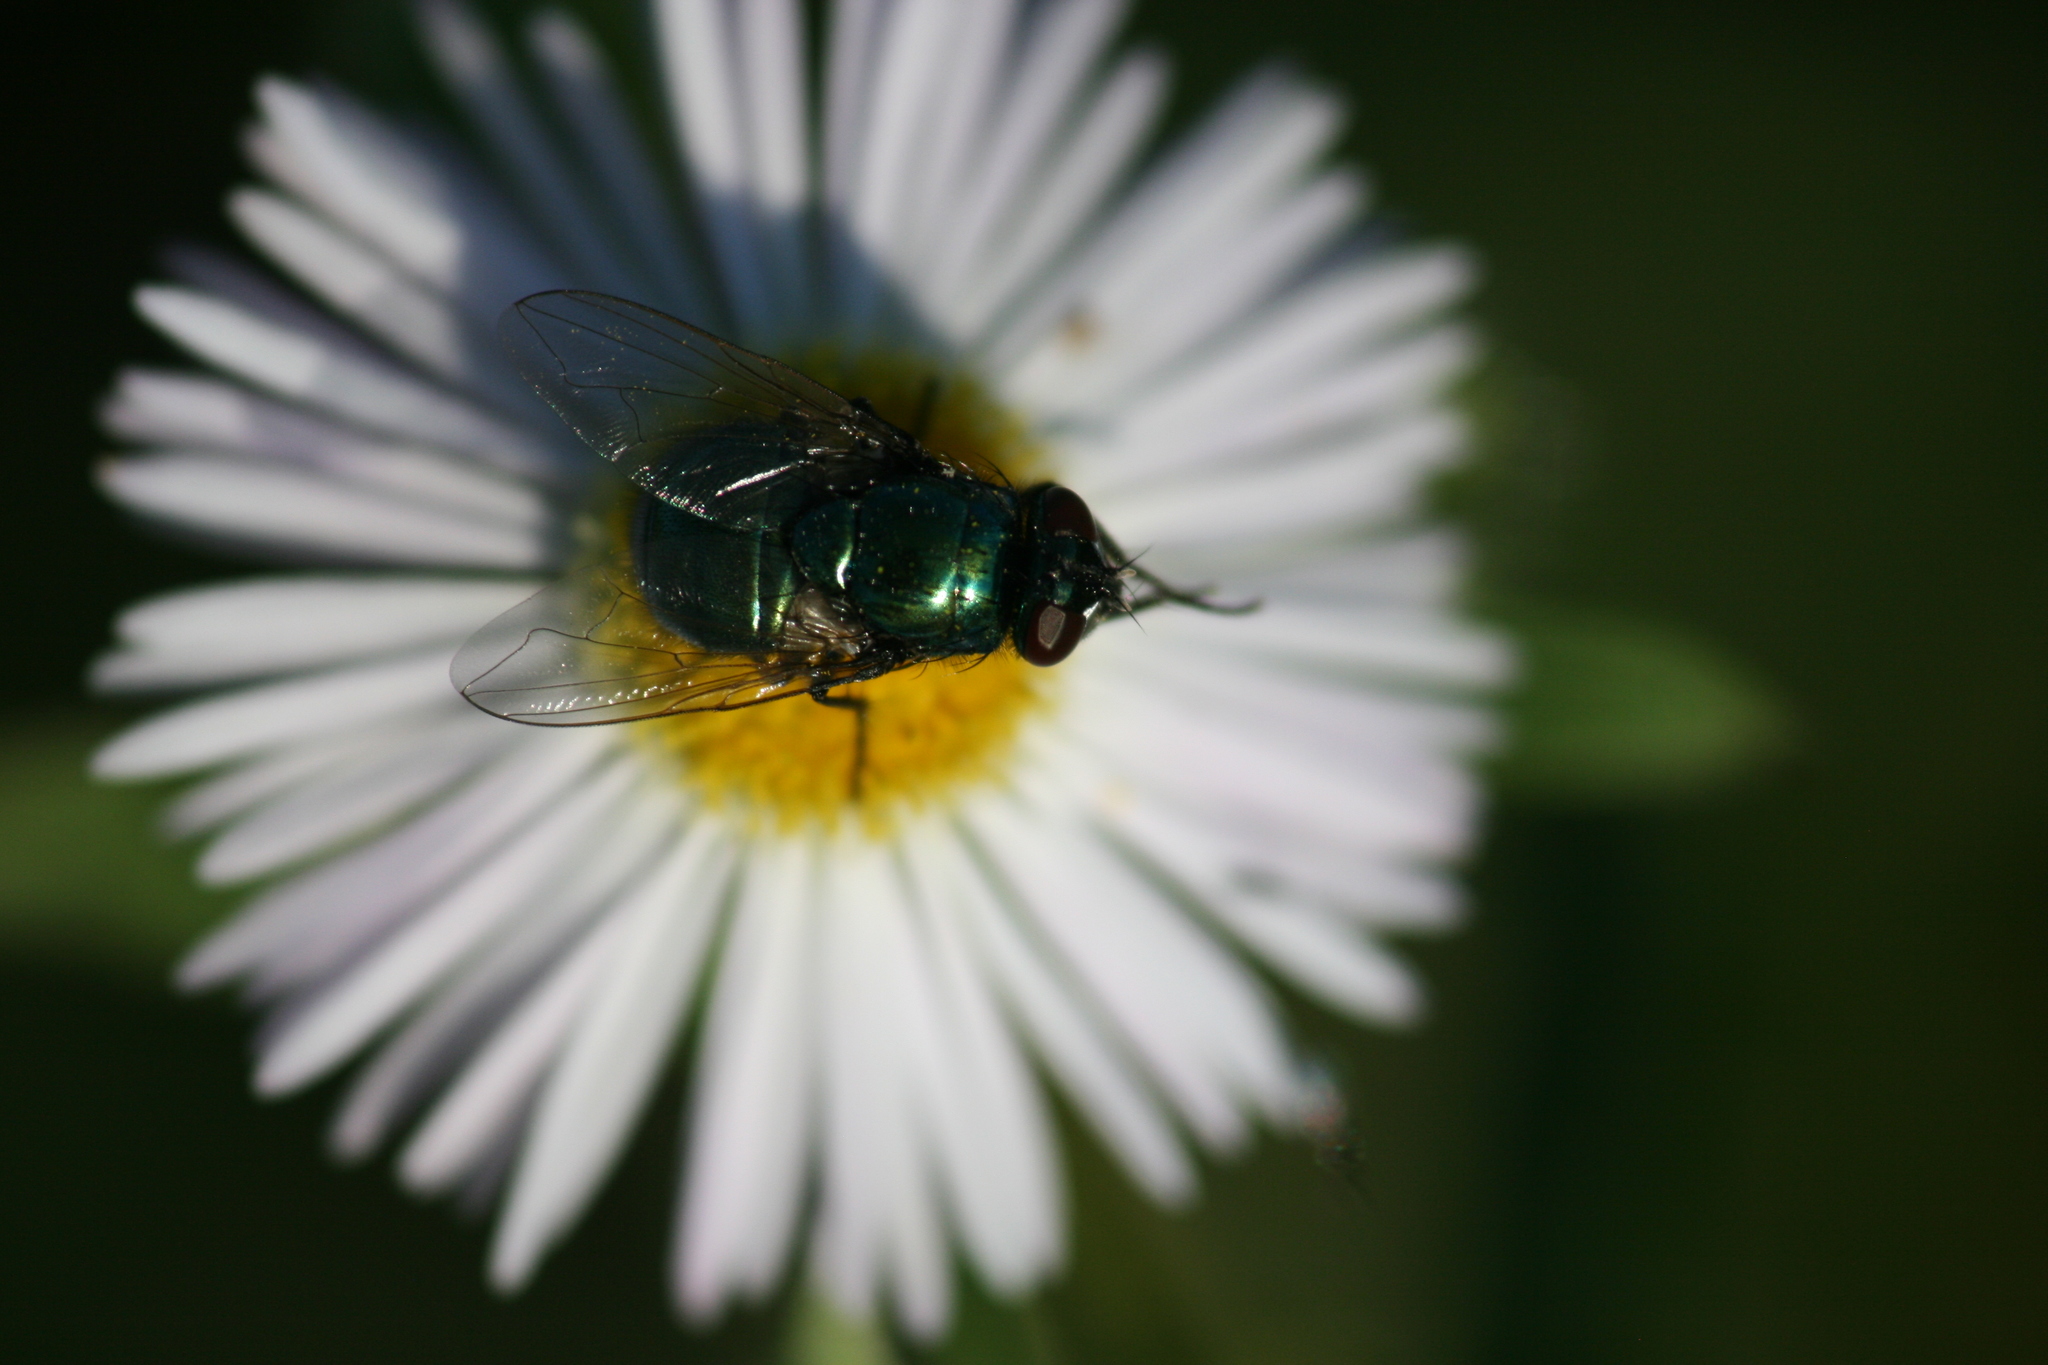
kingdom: Animalia
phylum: Arthropoda
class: Insecta
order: Diptera
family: Muscidae
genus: Neomyia
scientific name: Neomyia cornicina
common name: House fly
